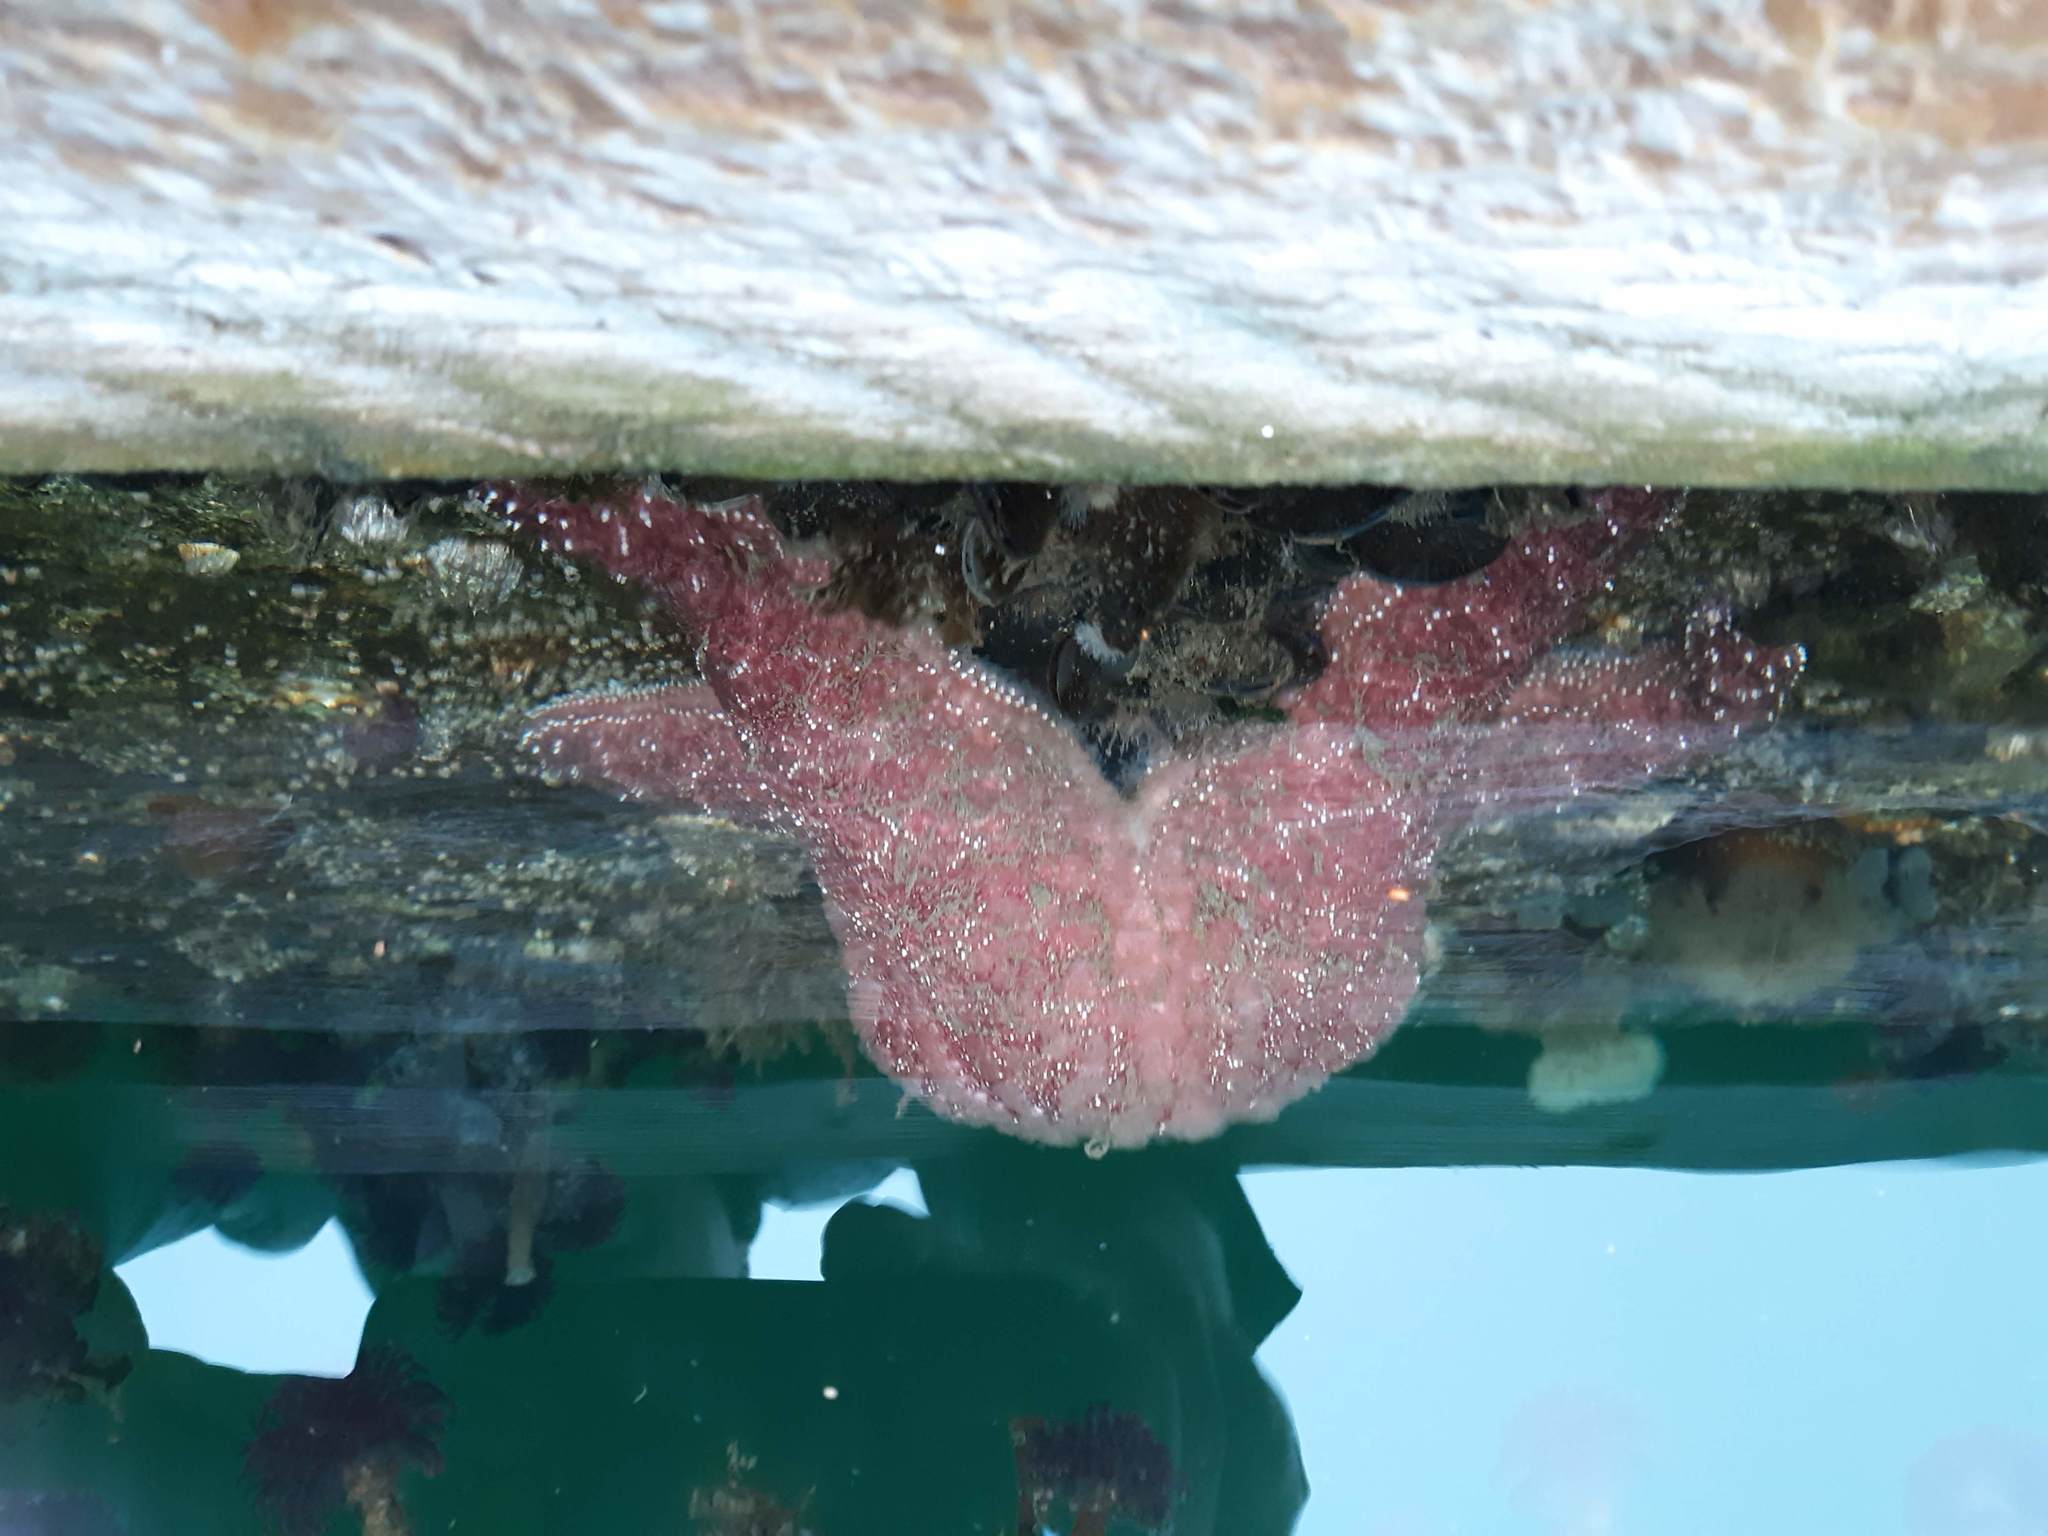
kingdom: Animalia
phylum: Echinodermata
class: Asteroidea
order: Forcipulatida
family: Asteriidae
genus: Pisaster
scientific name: Pisaster ochraceus
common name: Ochre stars
